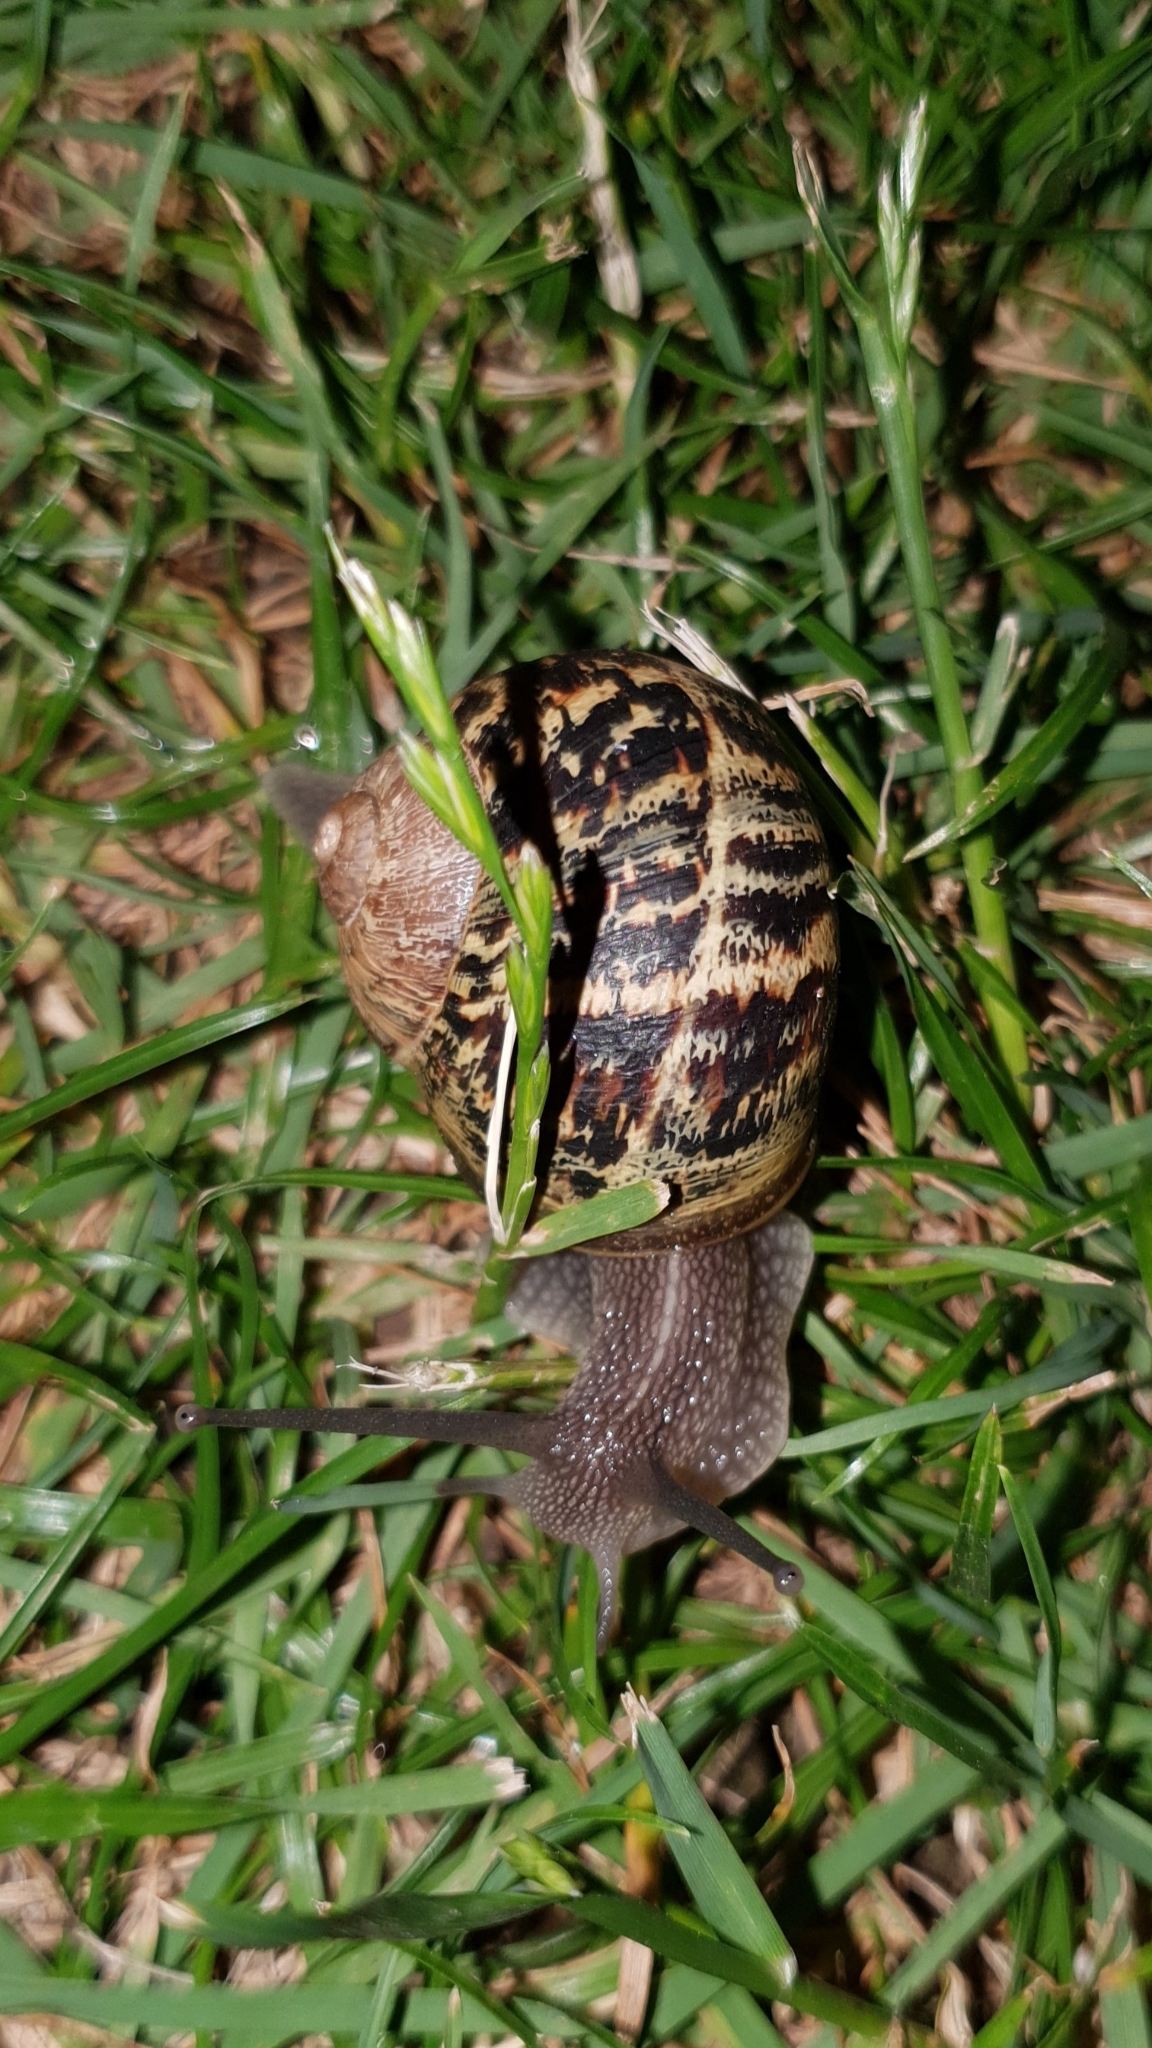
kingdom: Animalia
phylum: Mollusca
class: Gastropoda
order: Stylommatophora
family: Helicidae
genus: Cornu
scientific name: Cornu aspersum
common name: Brown garden snail
